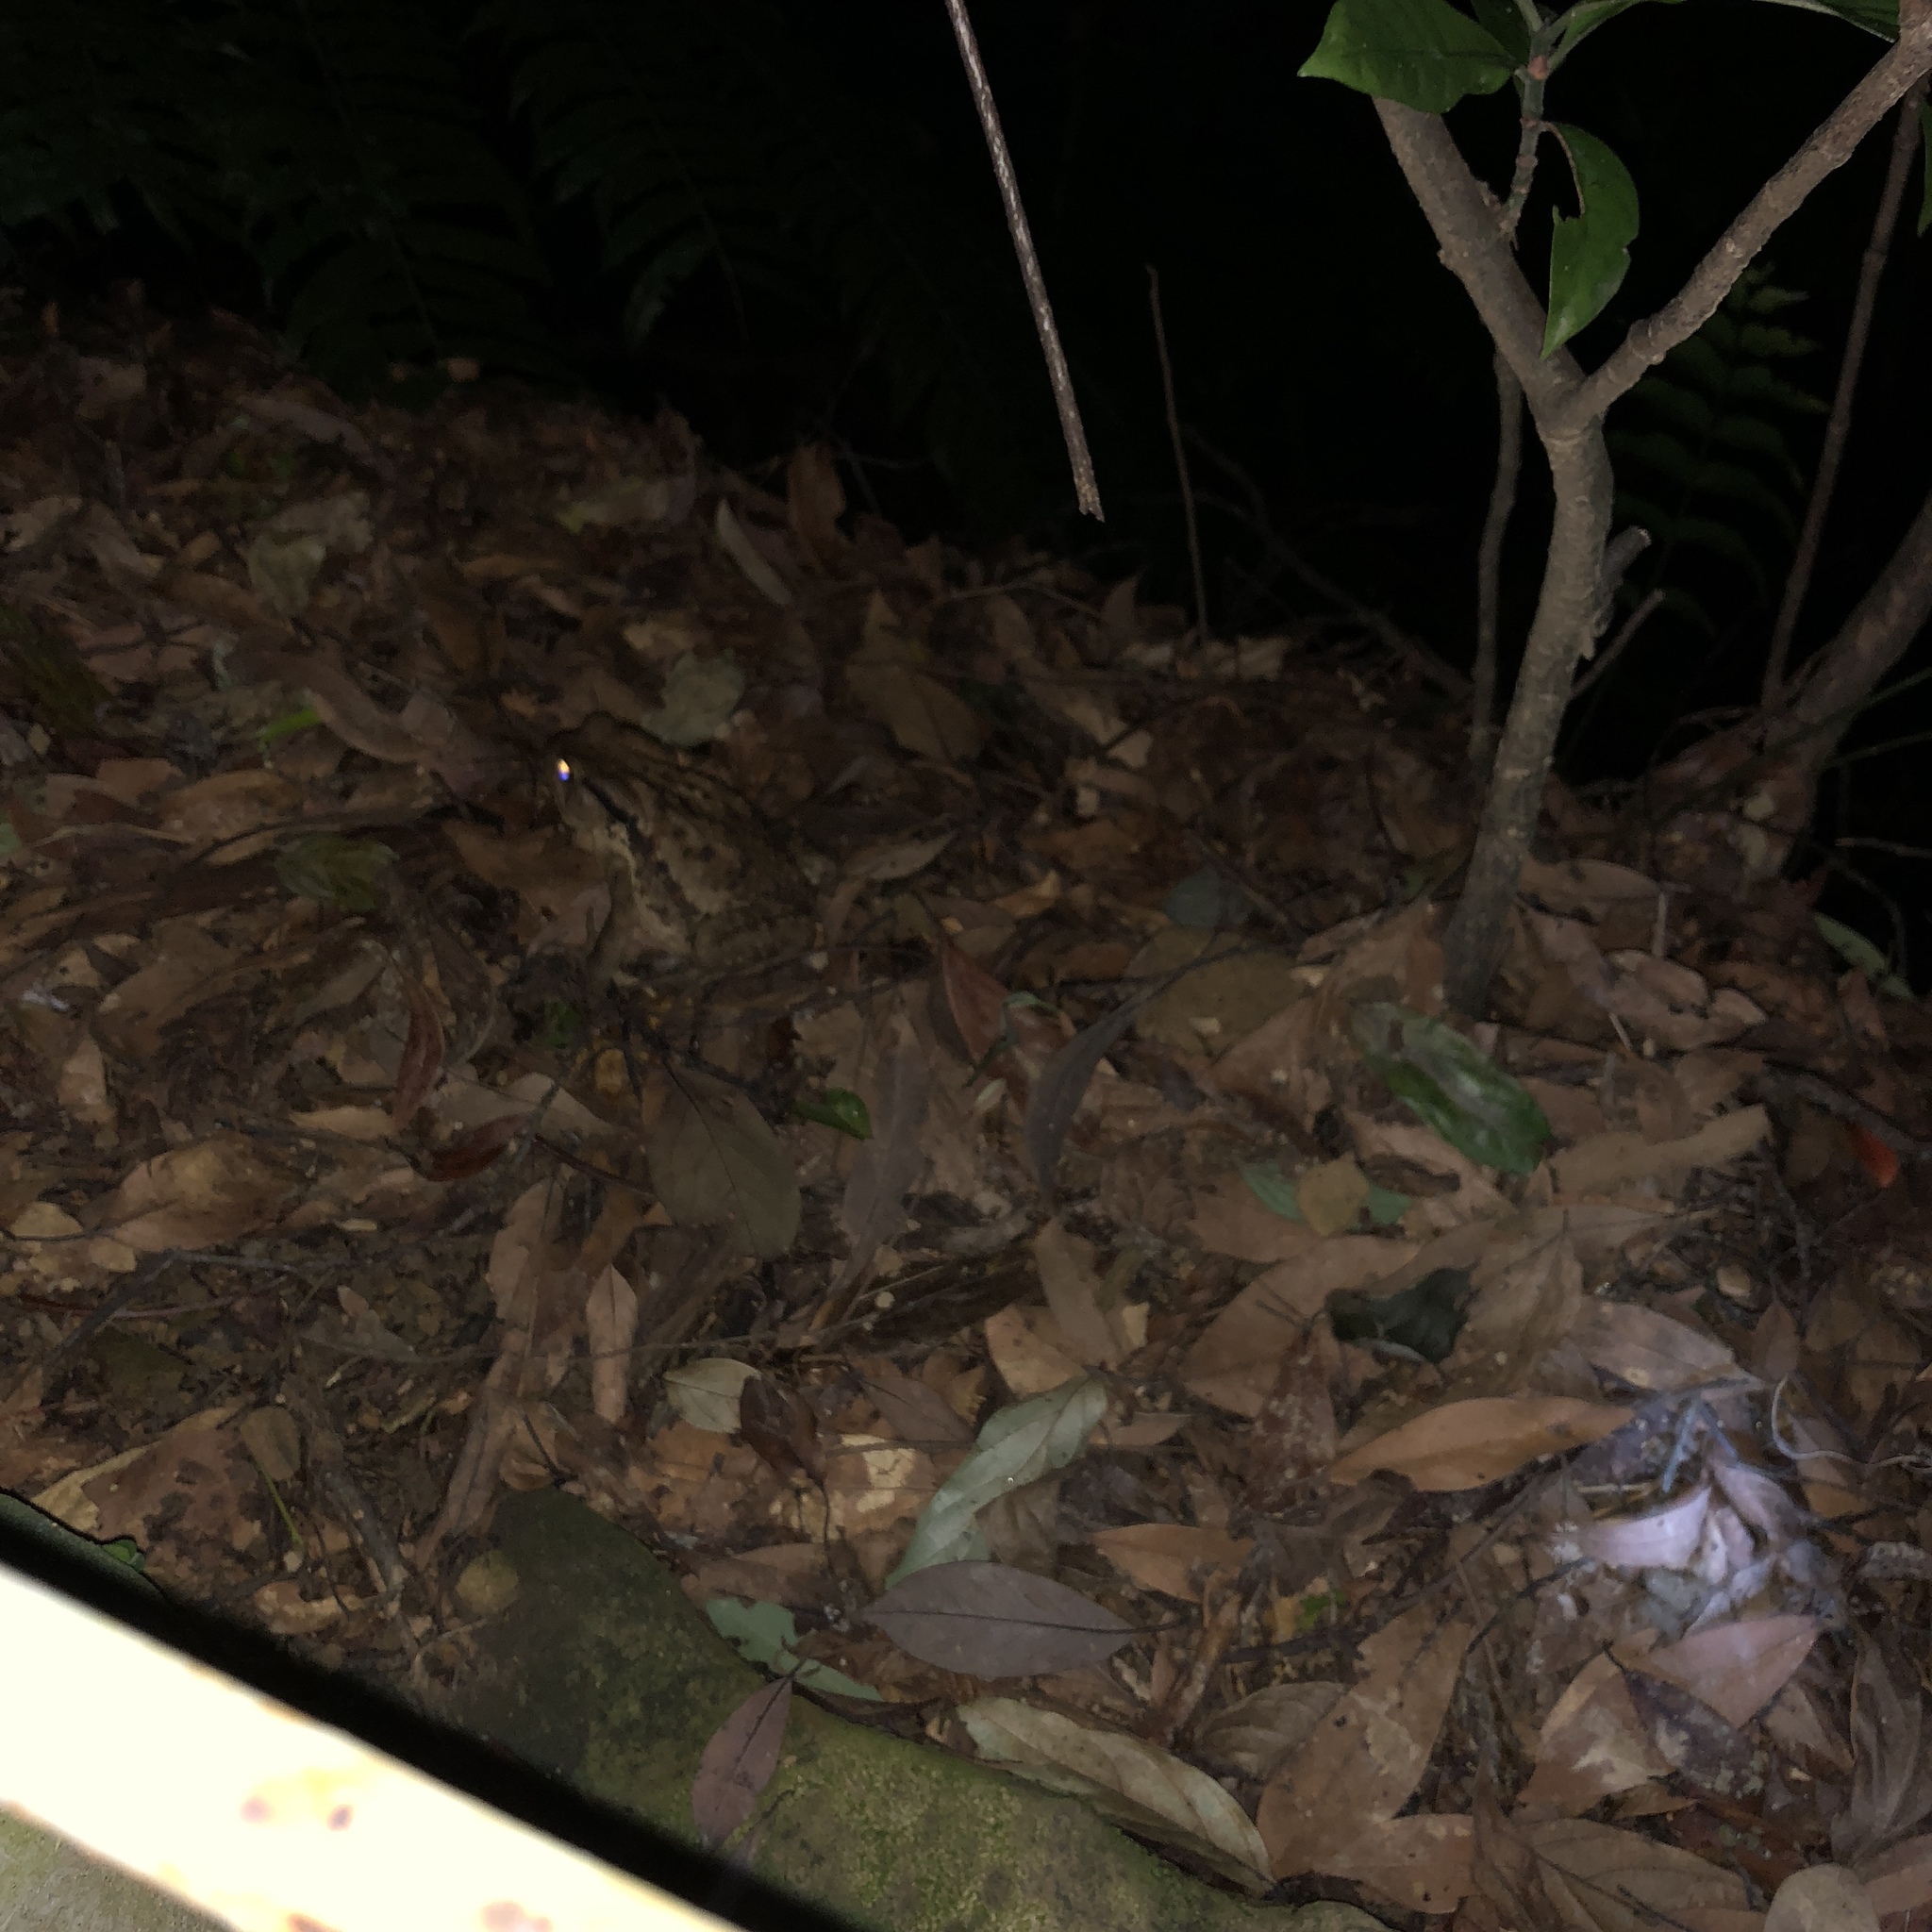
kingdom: Animalia
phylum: Chordata
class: Amphibia
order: Anura
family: Bufonidae
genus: Bufo
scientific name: Bufo bankorensis
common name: Bankor toad
